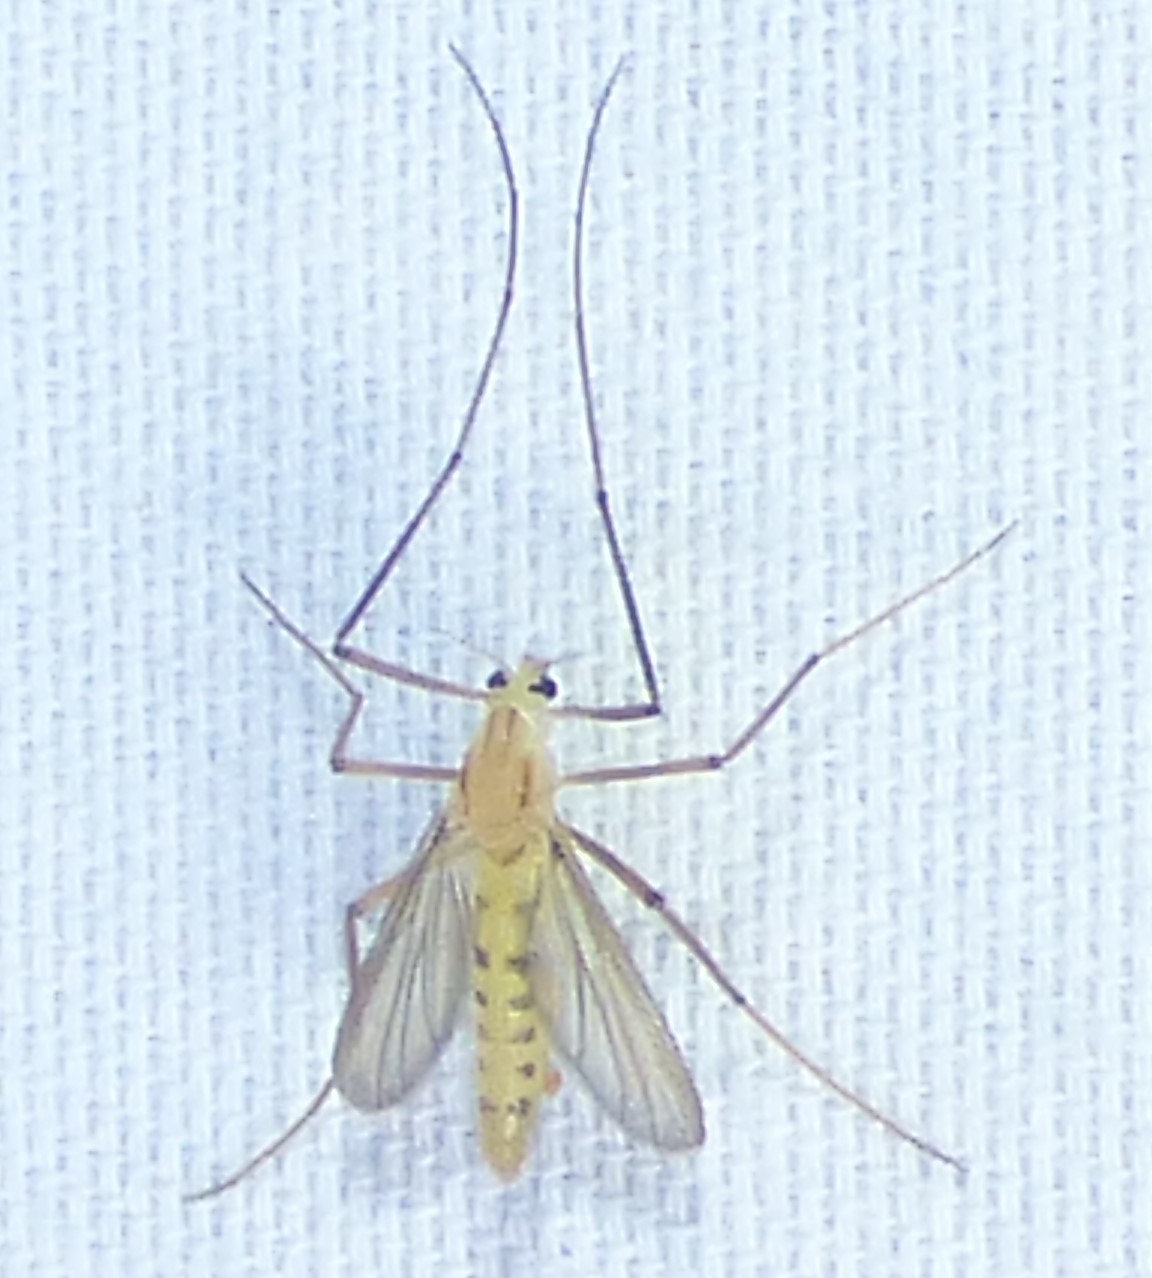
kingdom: Animalia
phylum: Arthropoda
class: Insecta
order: Diptera
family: Chironomidae
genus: Xylotopus
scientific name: Xylotopus par
